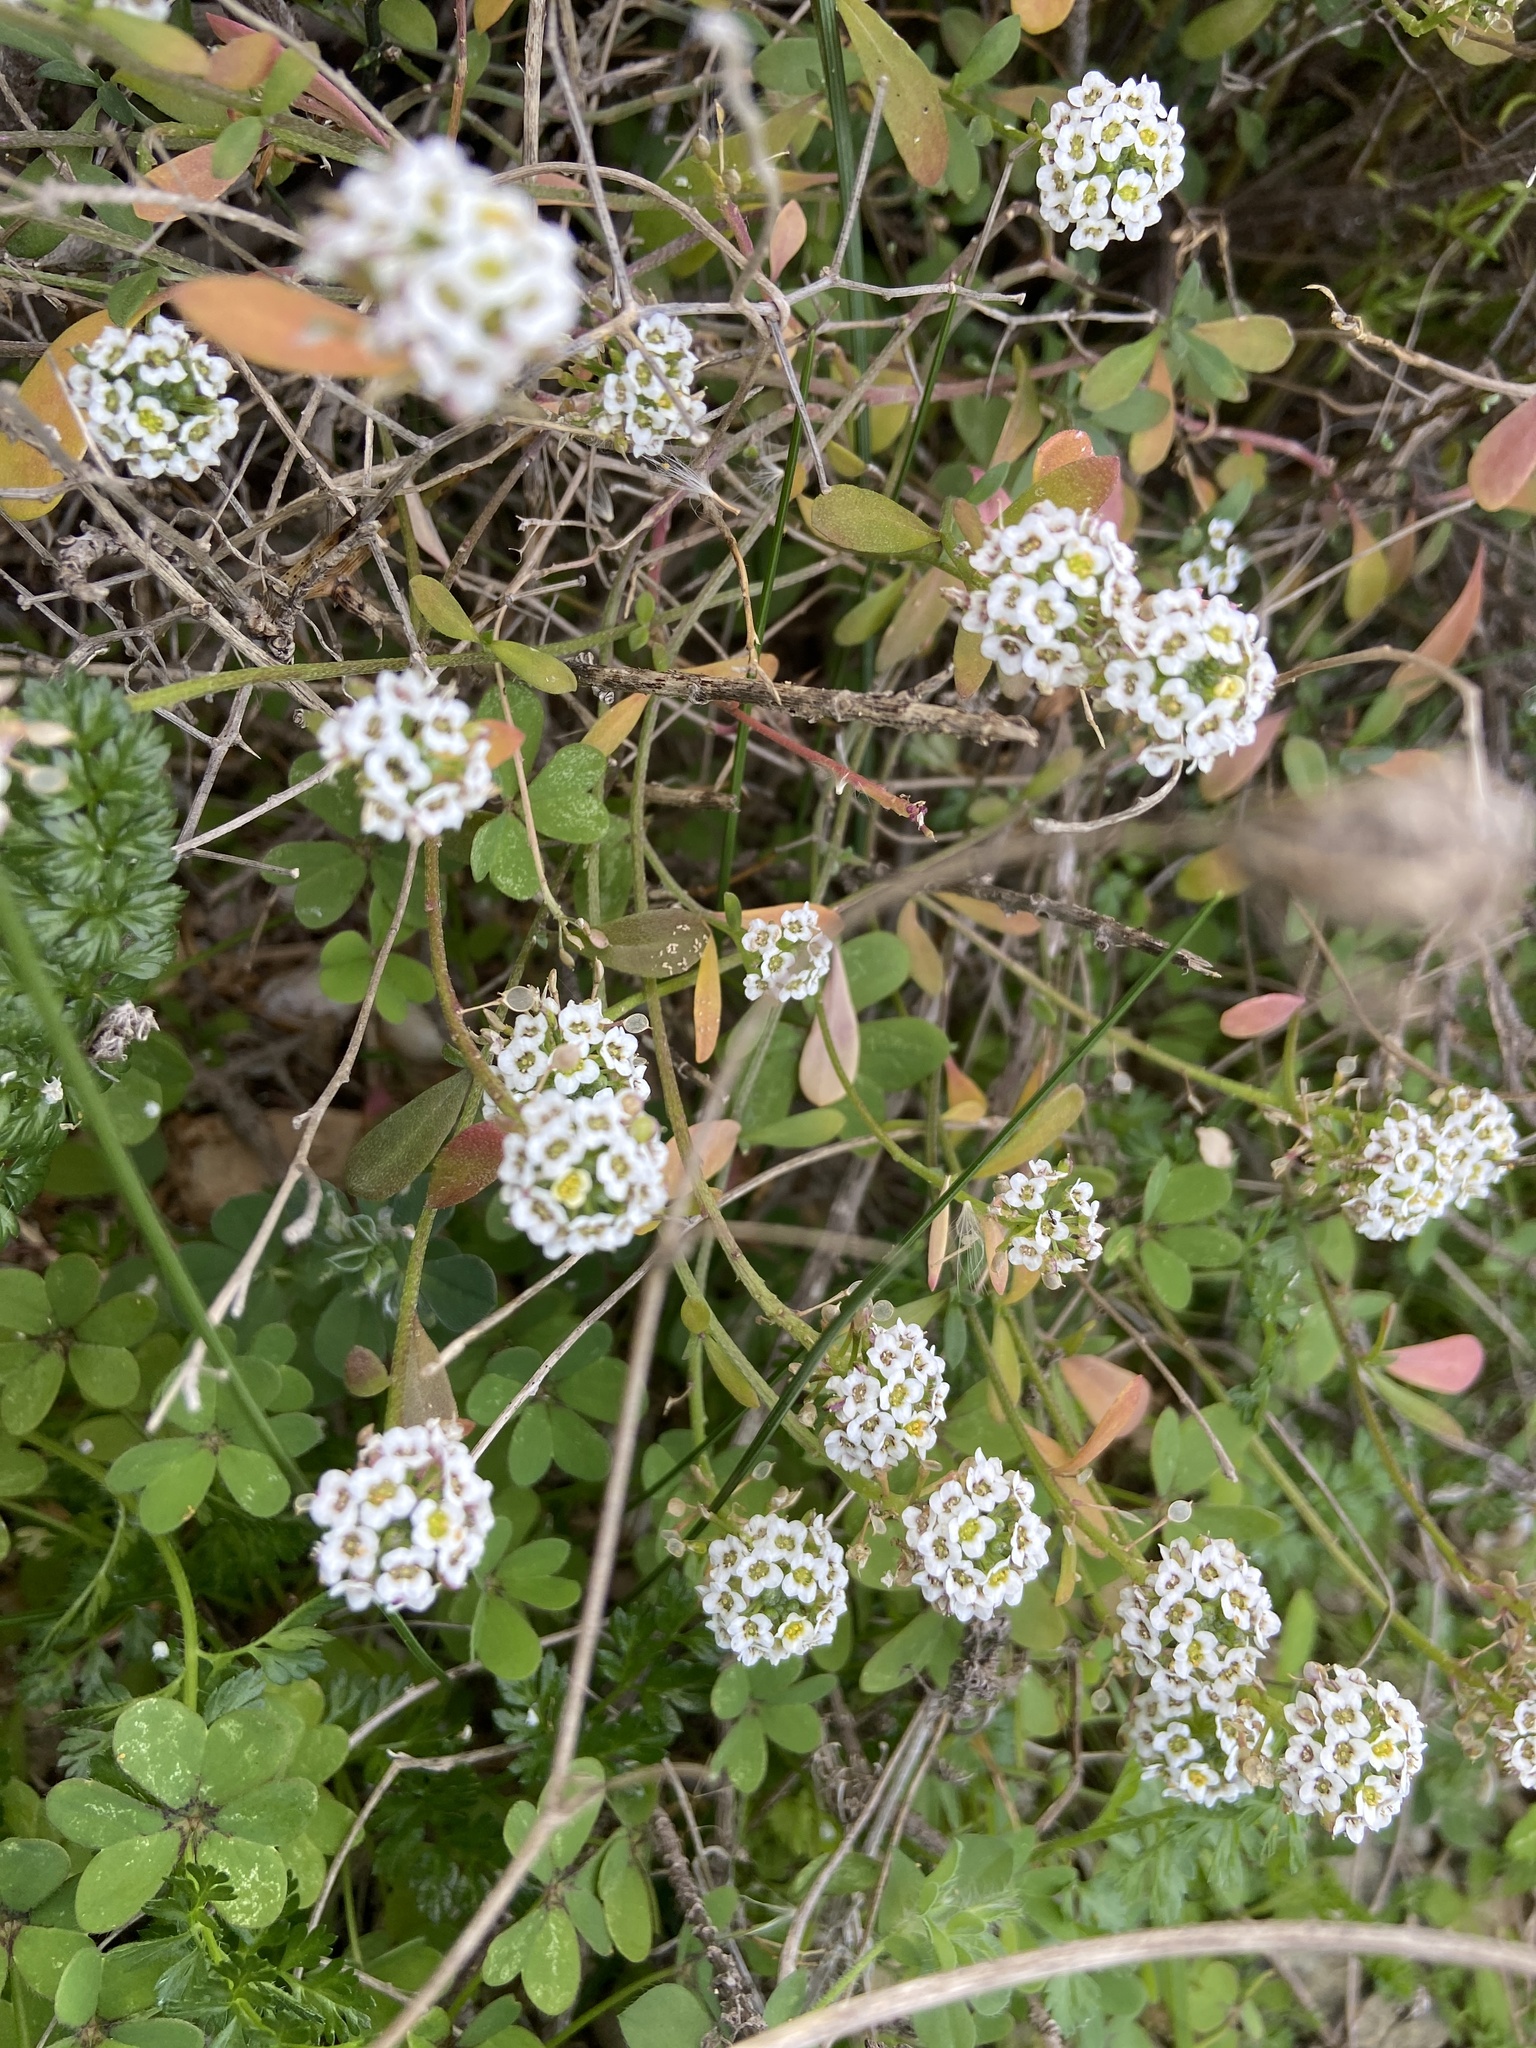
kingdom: Plantae
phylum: Tracheophyta
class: Magnoliopsida
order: Brassicales
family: Brassicaceae
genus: Lobularia
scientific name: Lobularia maritima
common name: Sweet alison
